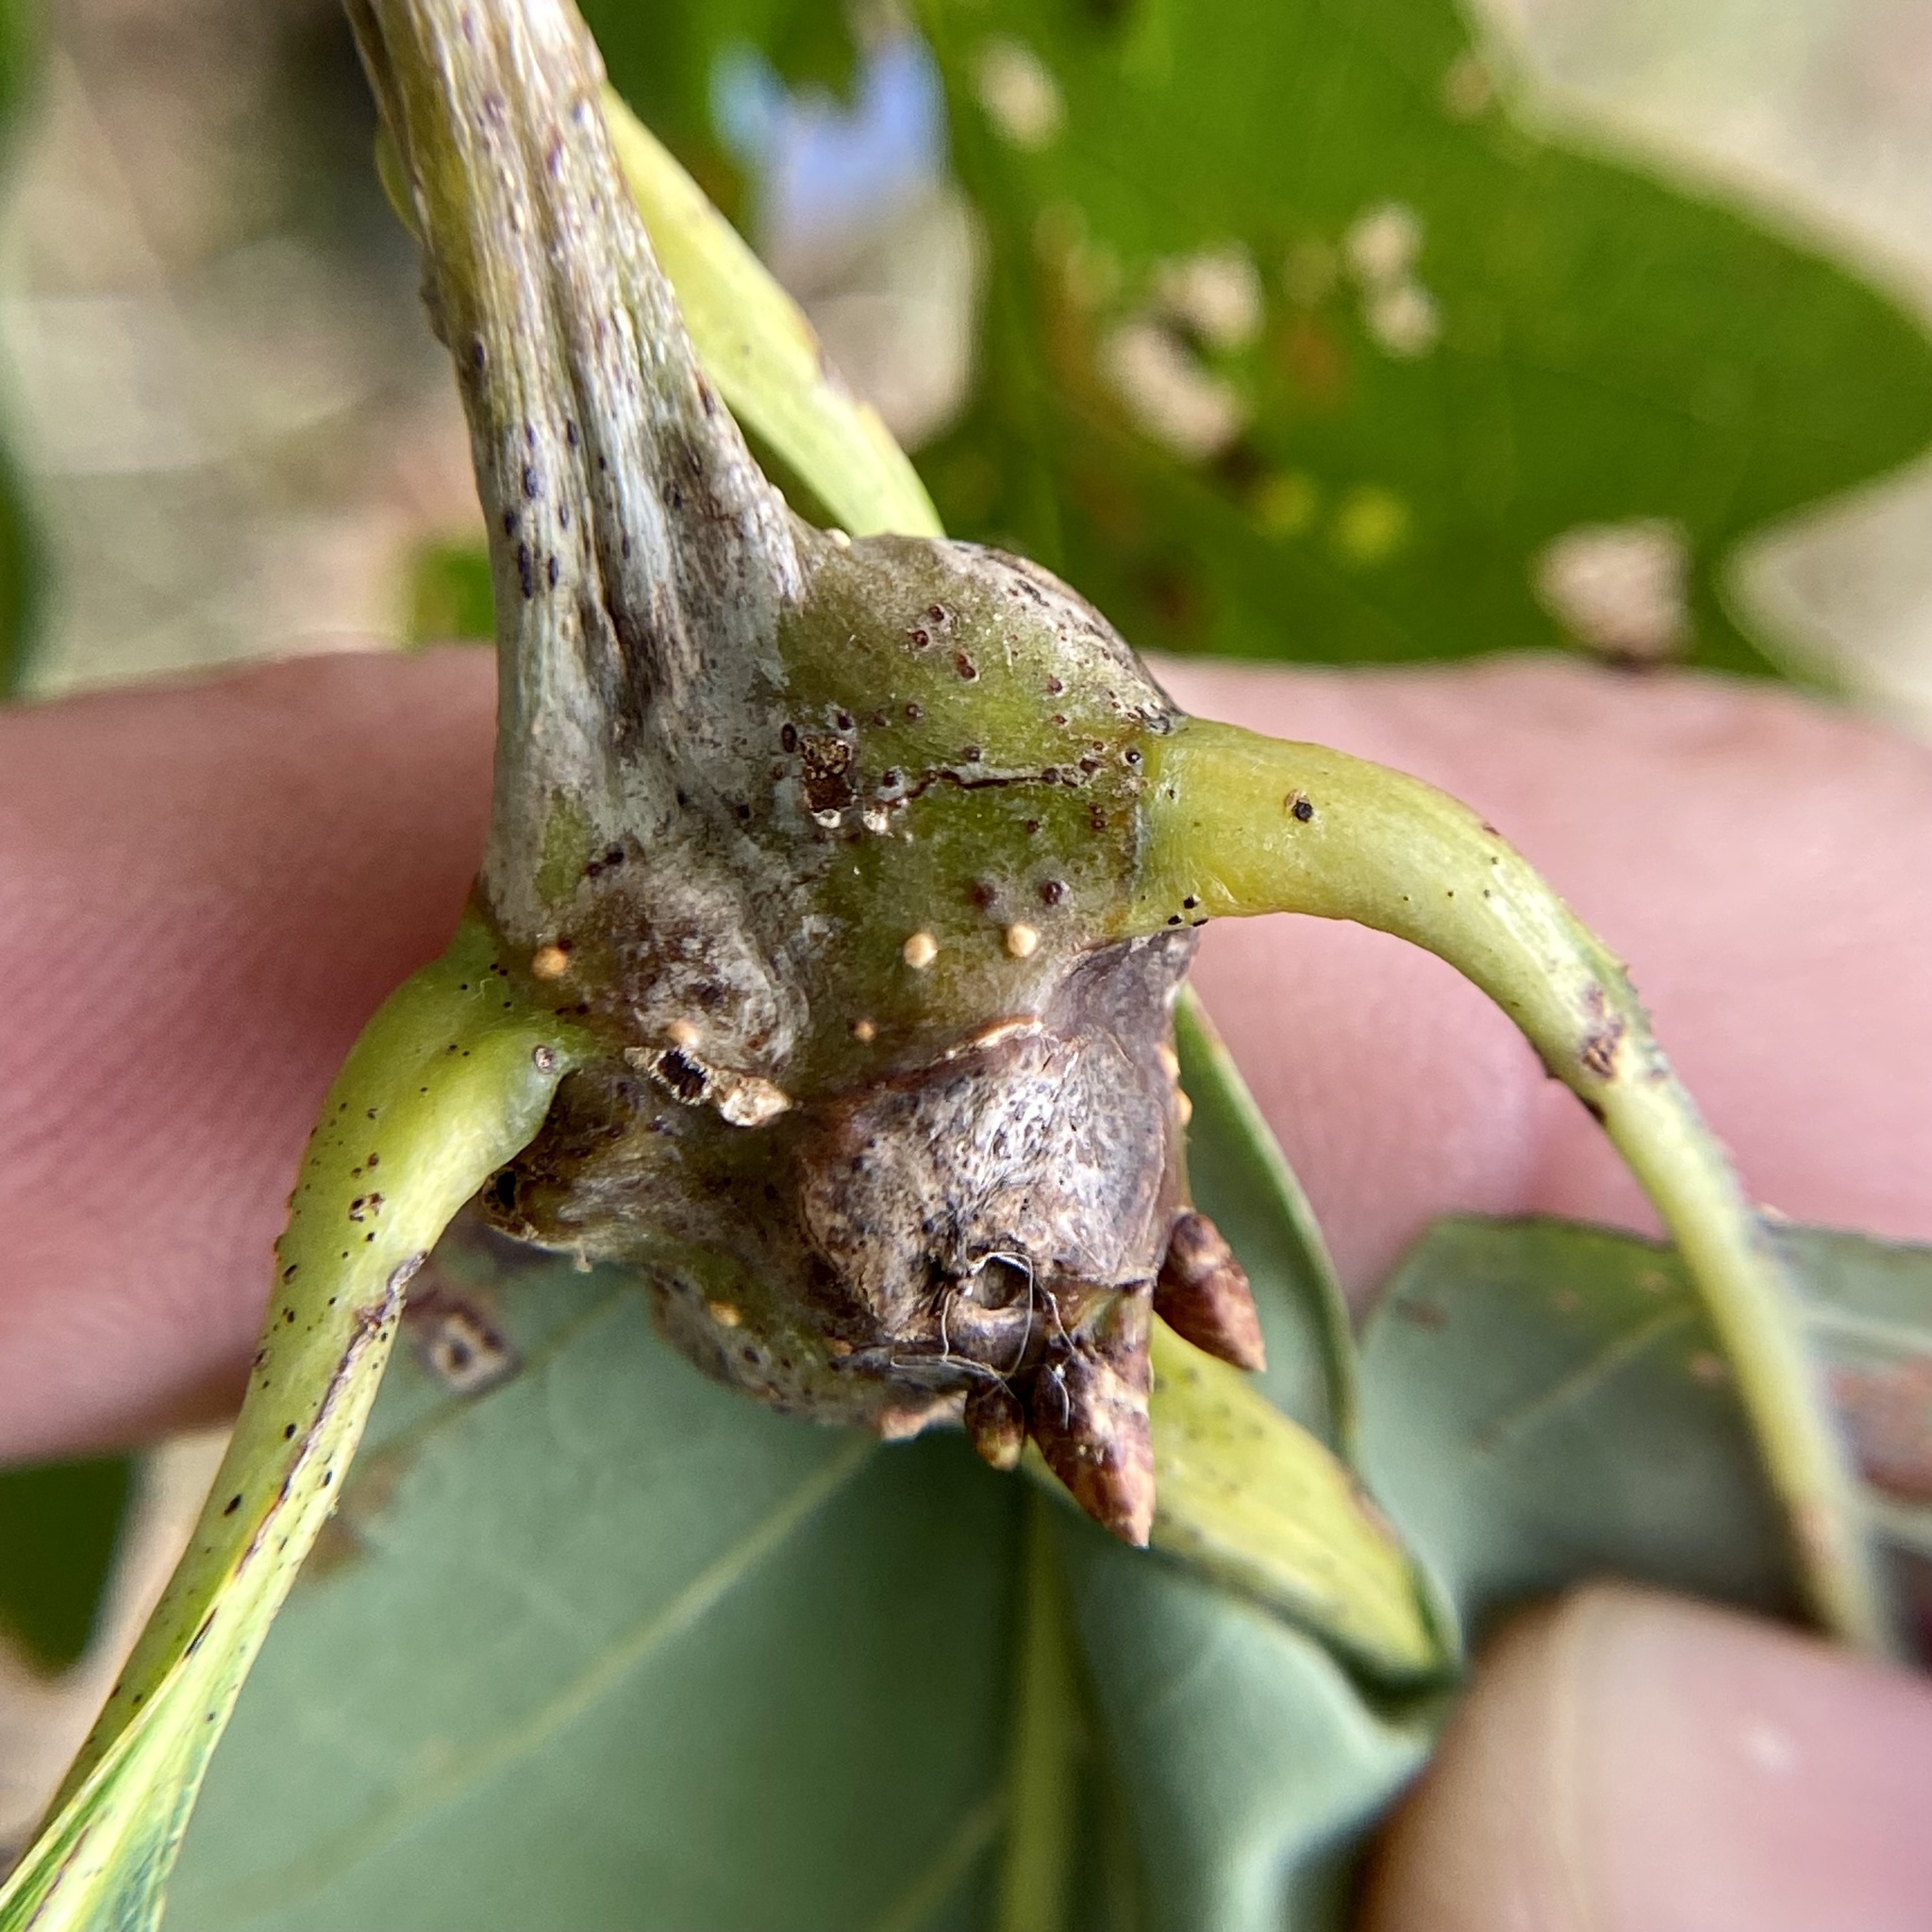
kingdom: Animalia
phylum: Arthropoda
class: Insecta
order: Hymenoptera
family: Cynipidae
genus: Callirhytis
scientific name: Callirhytis clavula
